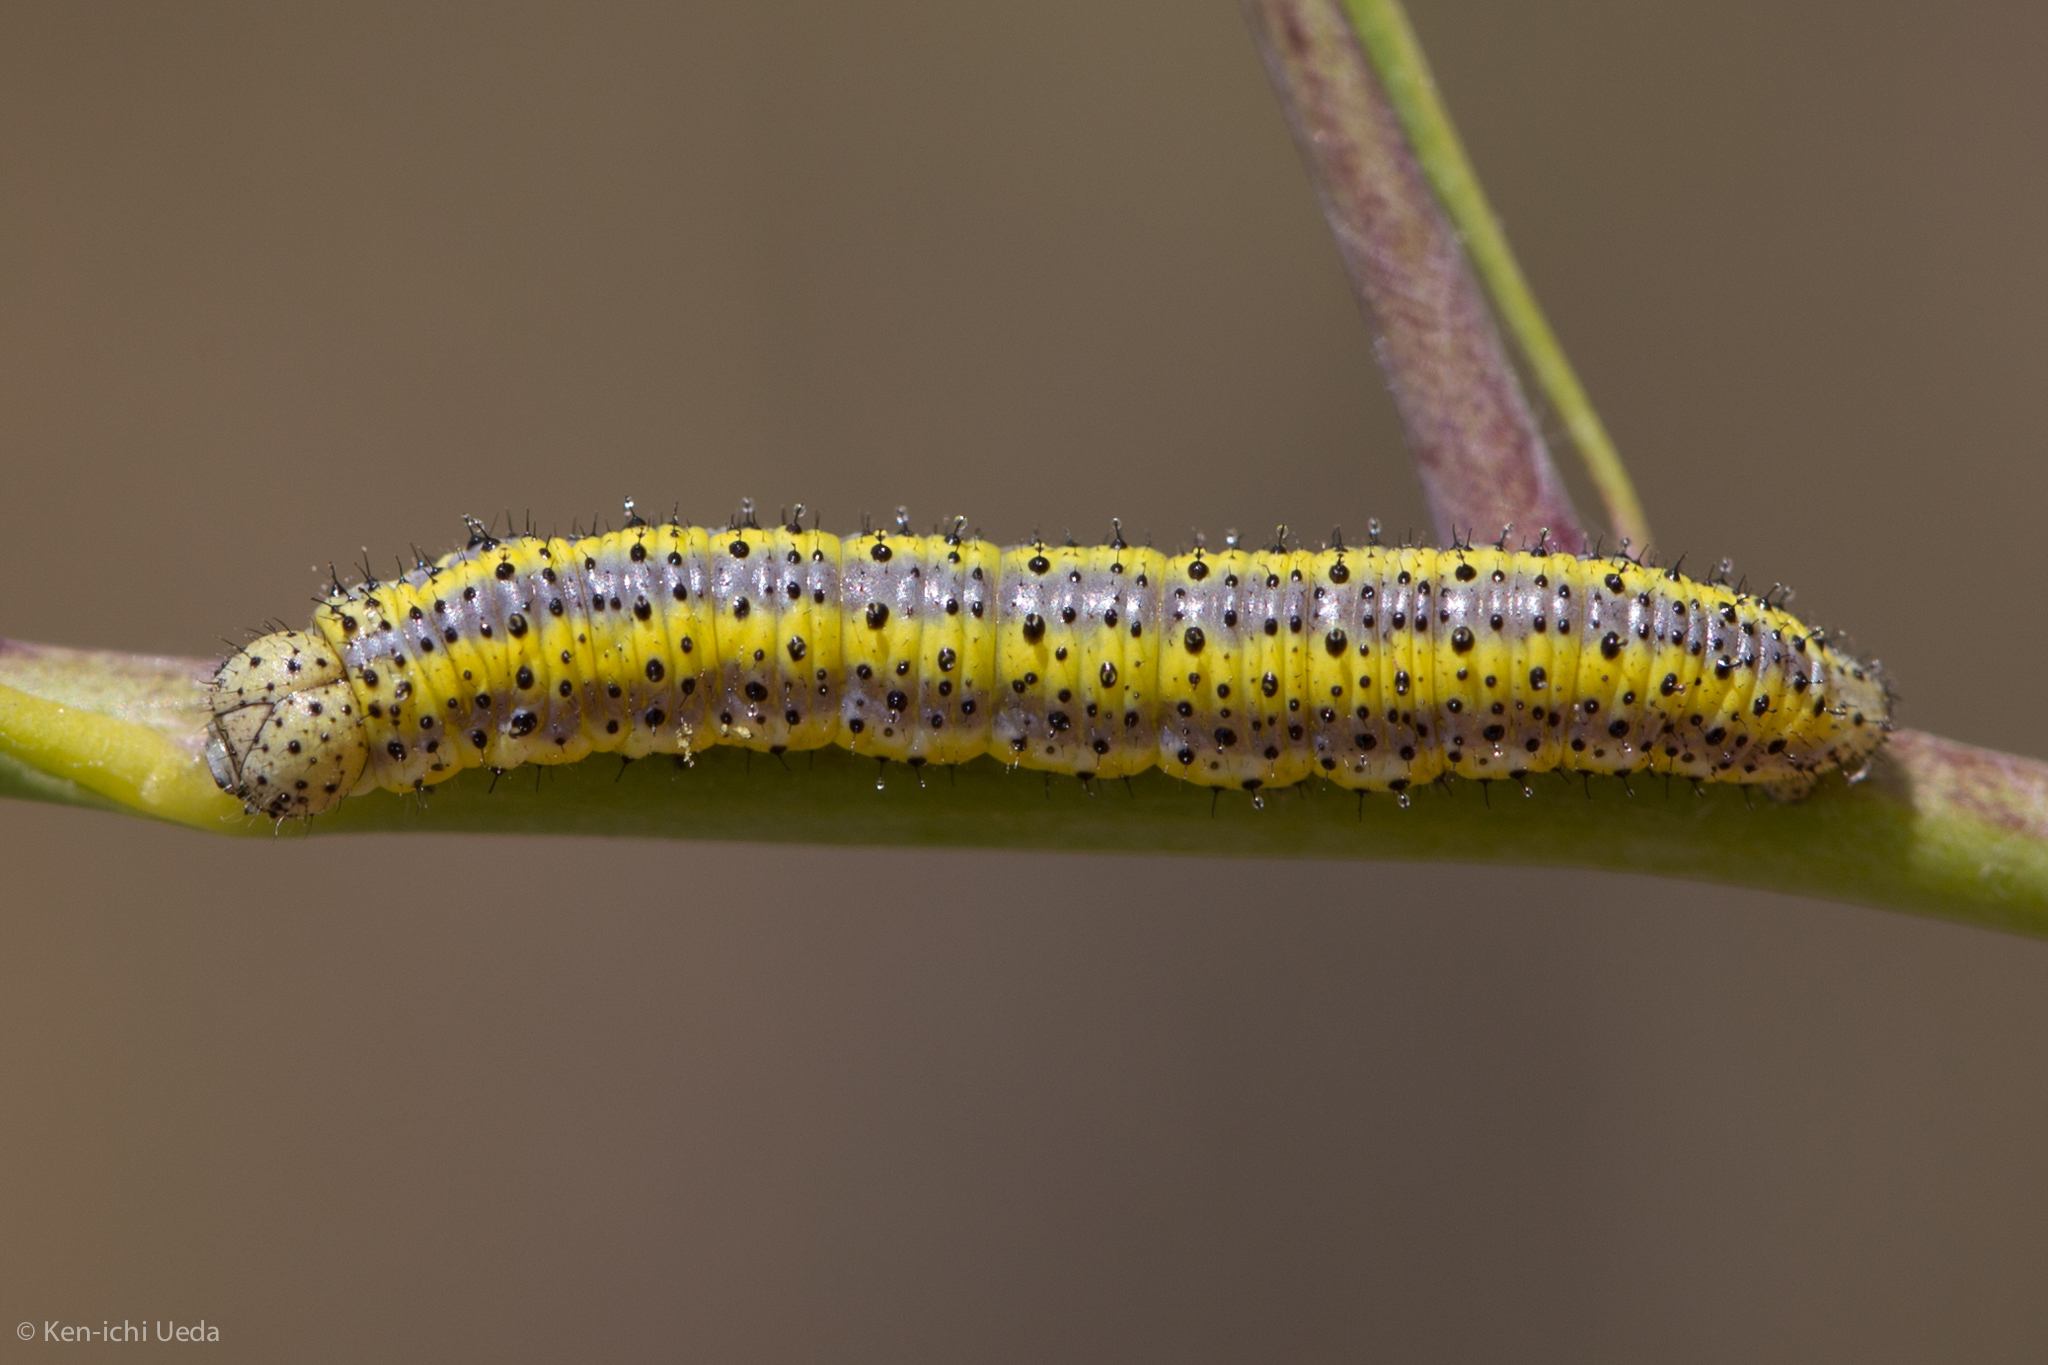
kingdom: Animalia
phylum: Arthropoda
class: Insecta
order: Lepidoptera
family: Pieridae
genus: Pontia
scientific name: Pontia protodice
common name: Checkered white
